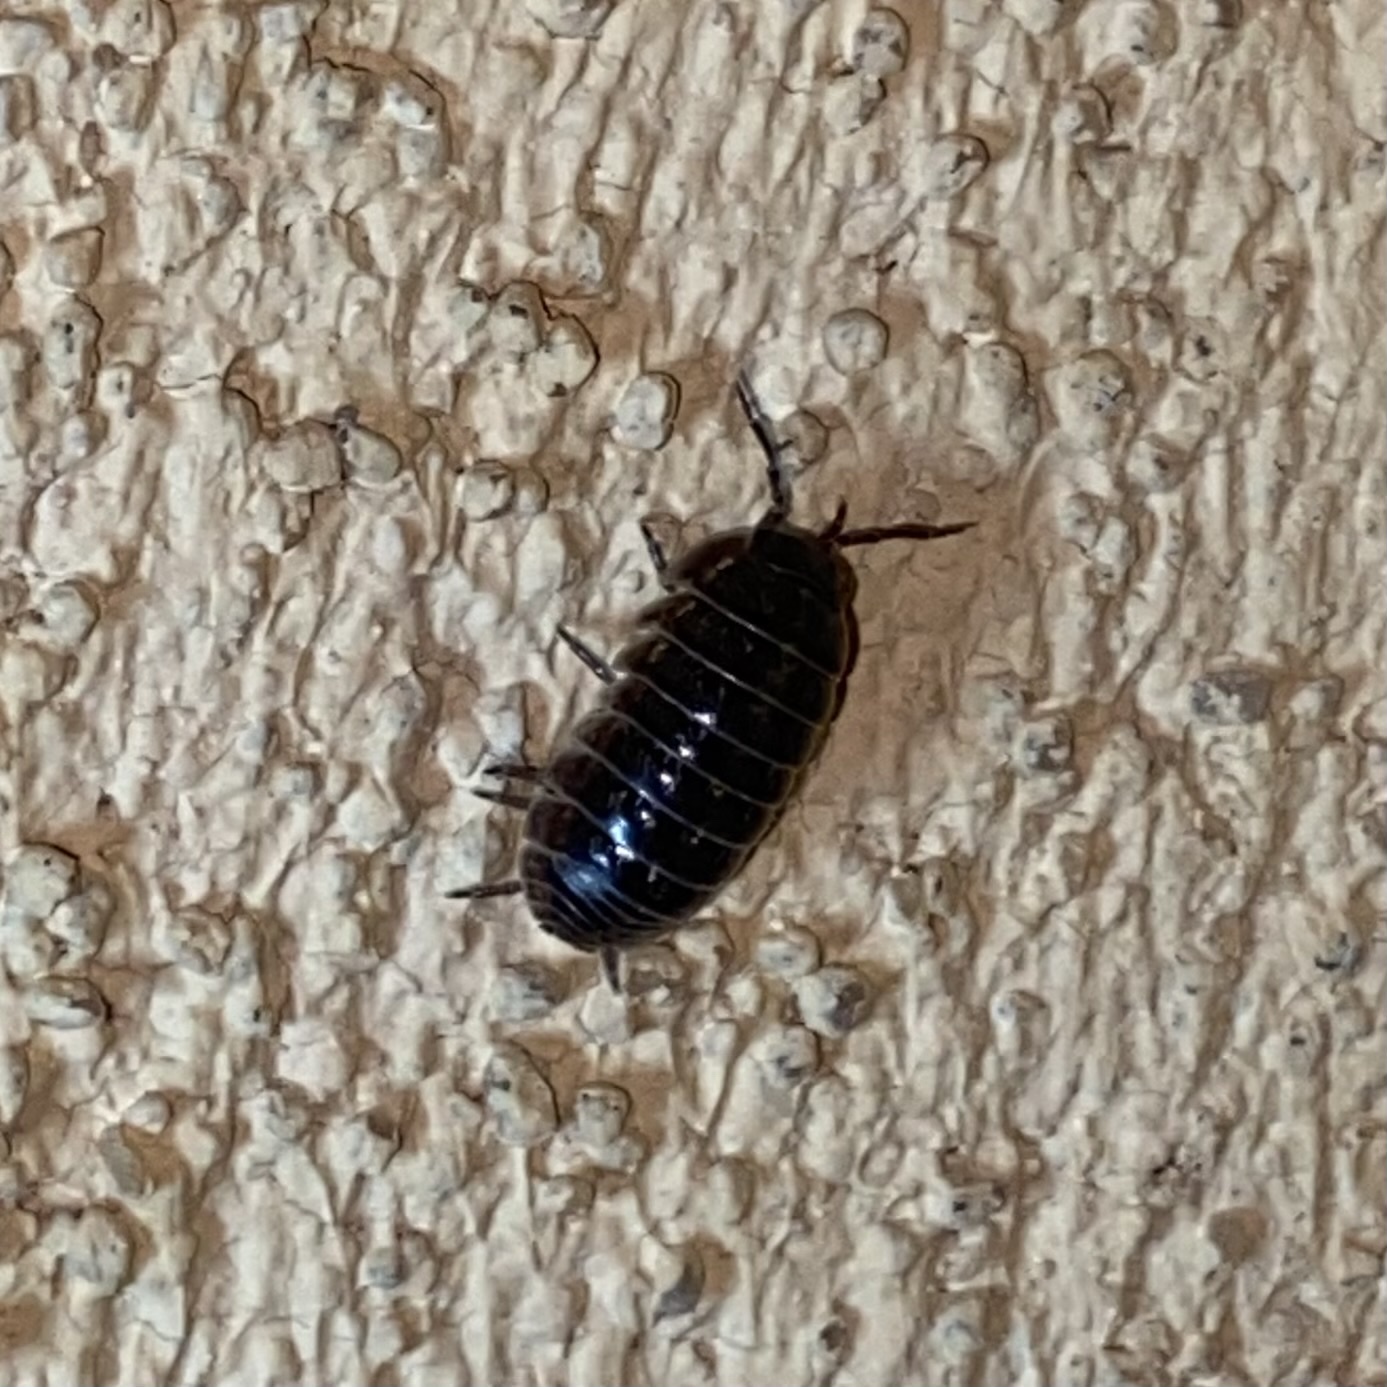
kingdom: Animalia
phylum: Arthropoda
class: Malacostraca
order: Isopoda
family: Armadillidiidae
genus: Armadillidium
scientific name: Armadillidium vulgare
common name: Common pill woodlouse
